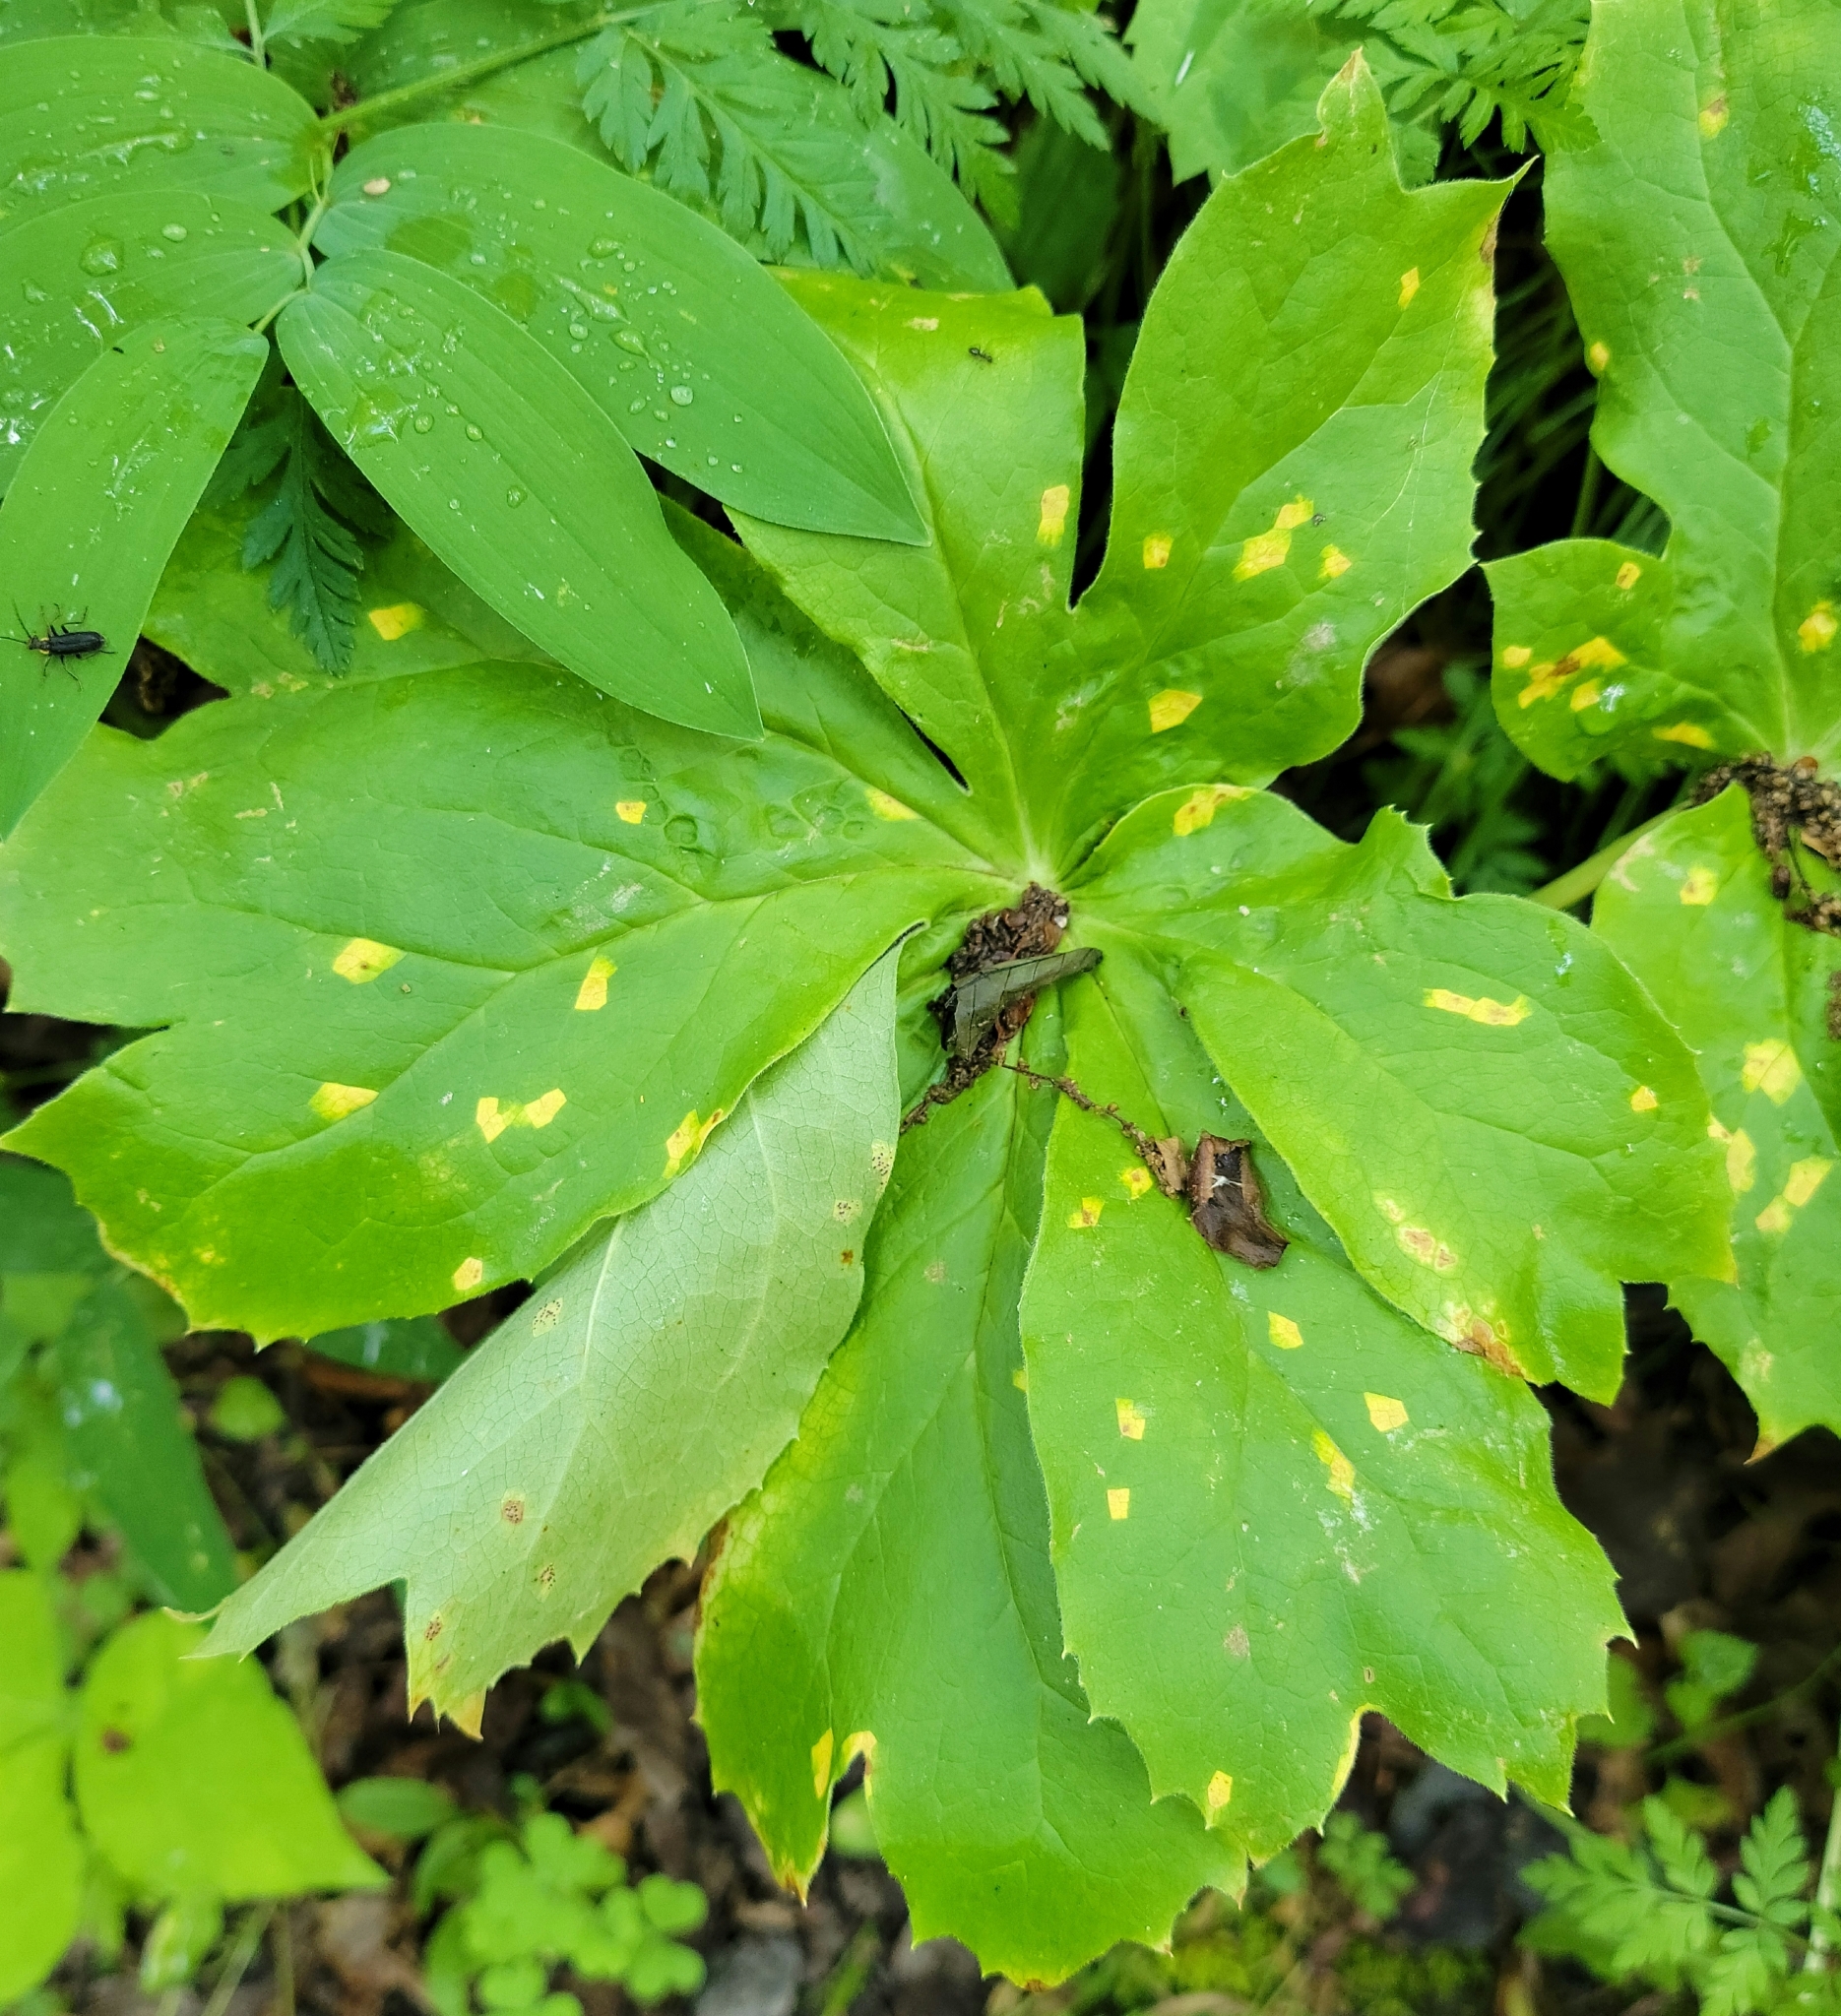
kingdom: Fungi
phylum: Basidiomycota
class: Pucciniomycetes
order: Pucciniales
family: Pucciniaceae
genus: Puccinia
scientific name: Puccinia podophylli
